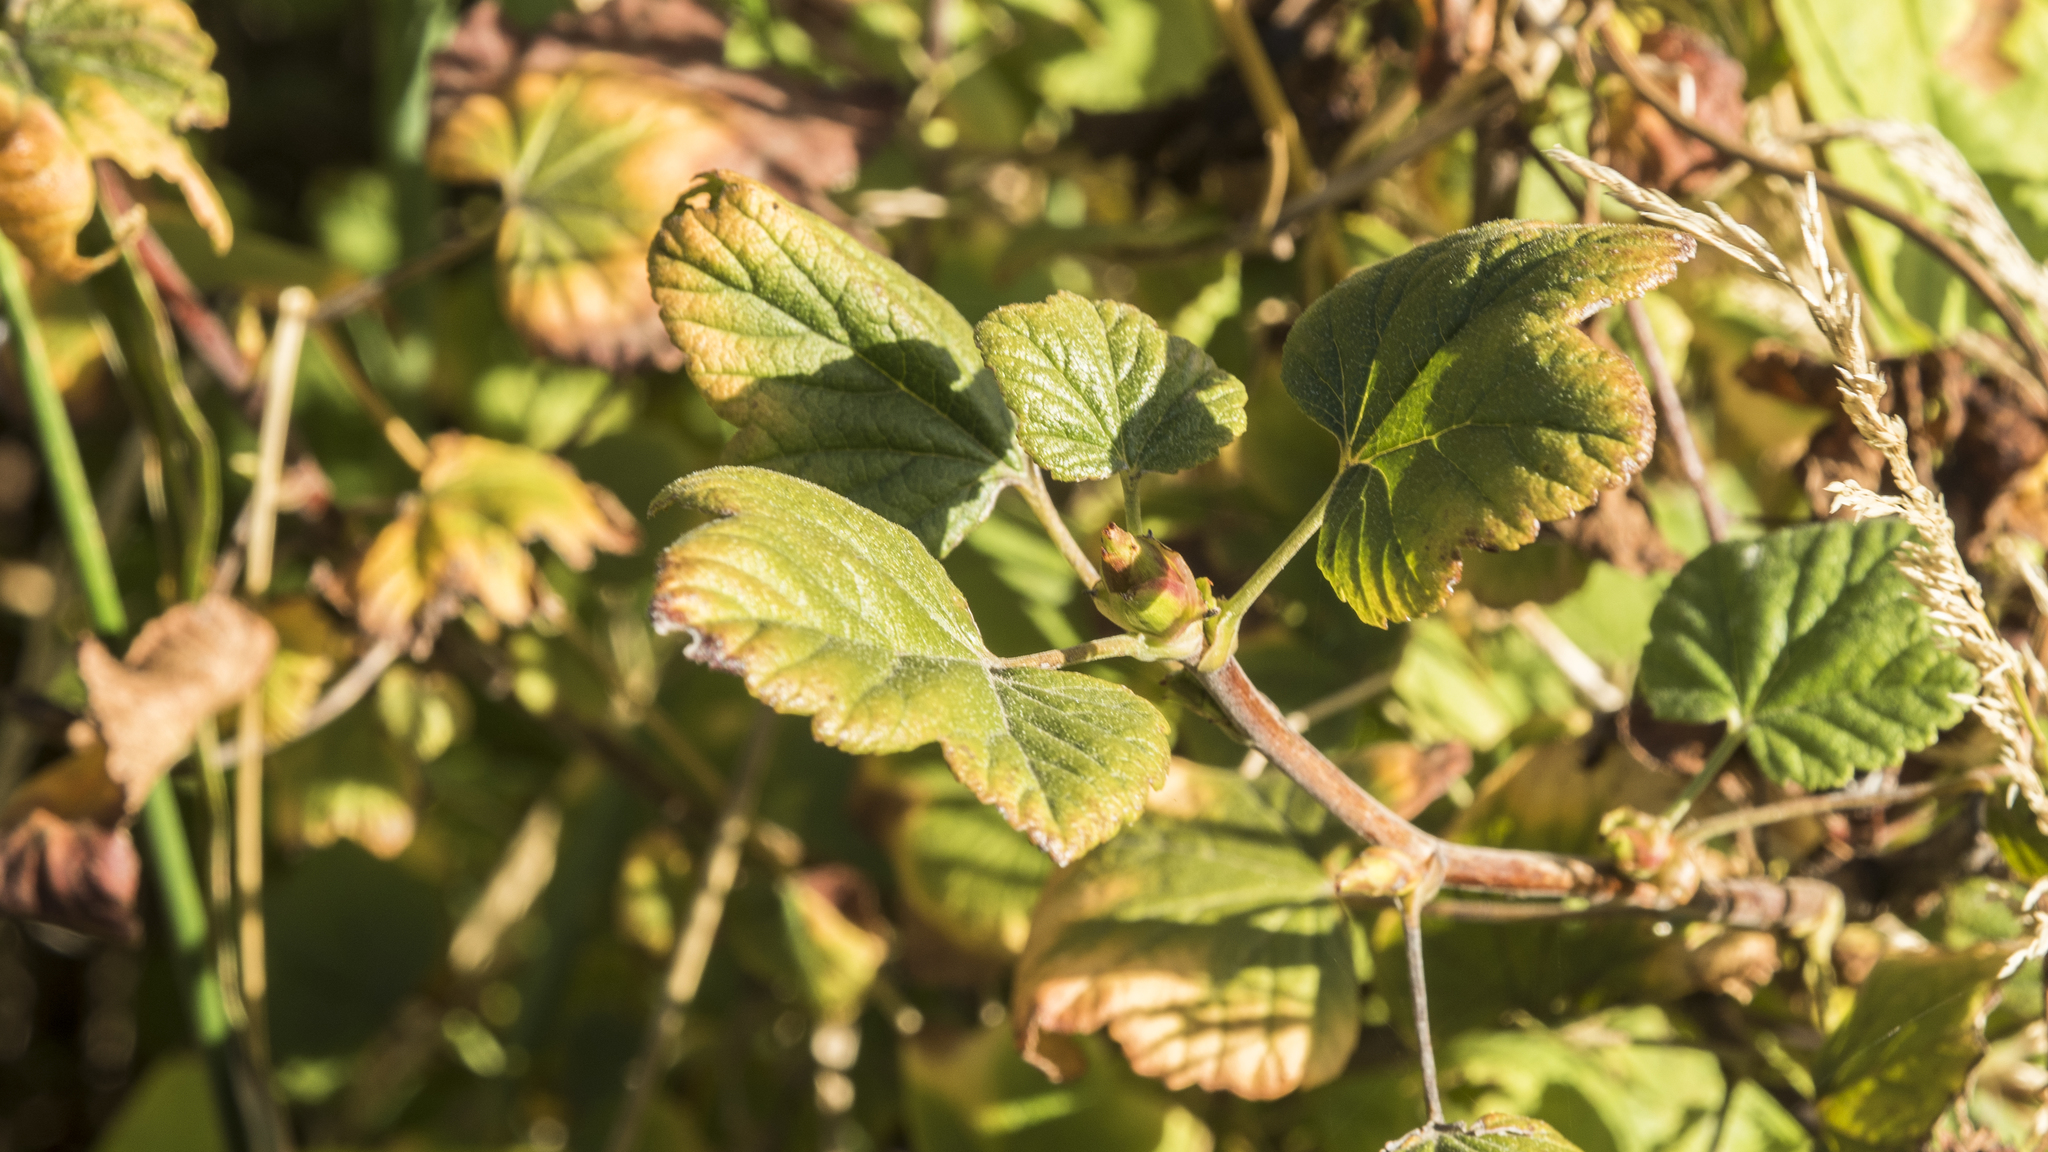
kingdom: Plantae
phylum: Tracheophyta
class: Magnoliopsida
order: Saxifragales
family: Grossulariaceae
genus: Ribes
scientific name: Ribes sanguineum
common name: Flowering currant
